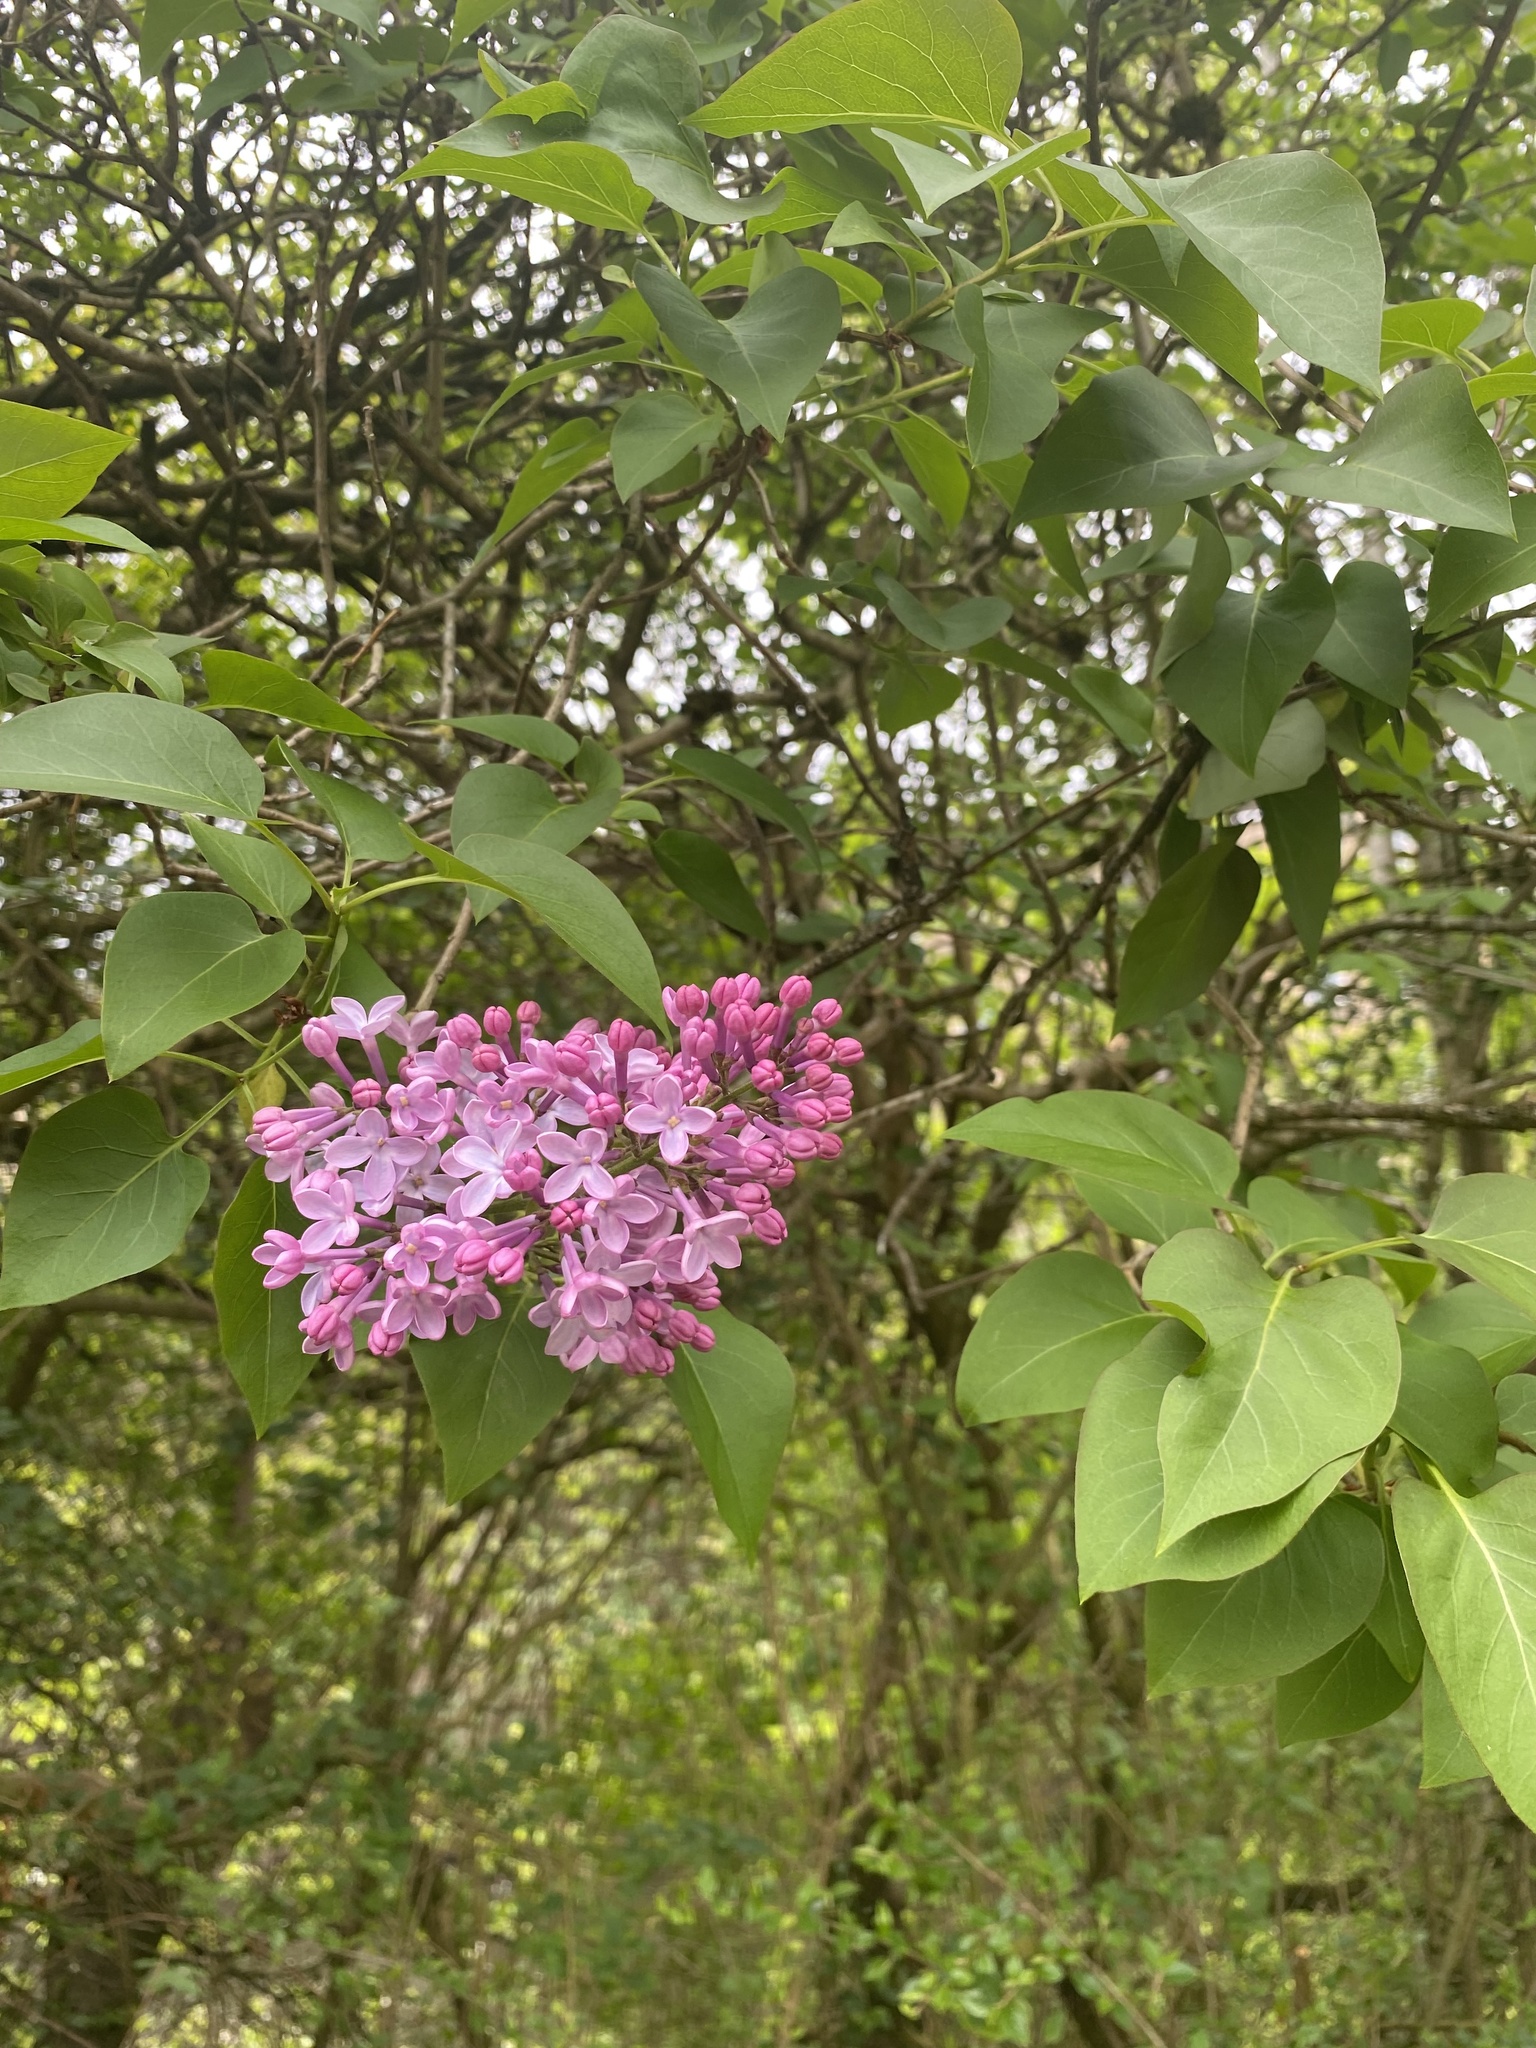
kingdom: Plantae
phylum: Tracheophyta
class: Magnoliopsida
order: Lamiales
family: Oleaceae
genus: Syringa
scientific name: Syringa vulgaris
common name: Common lilac
